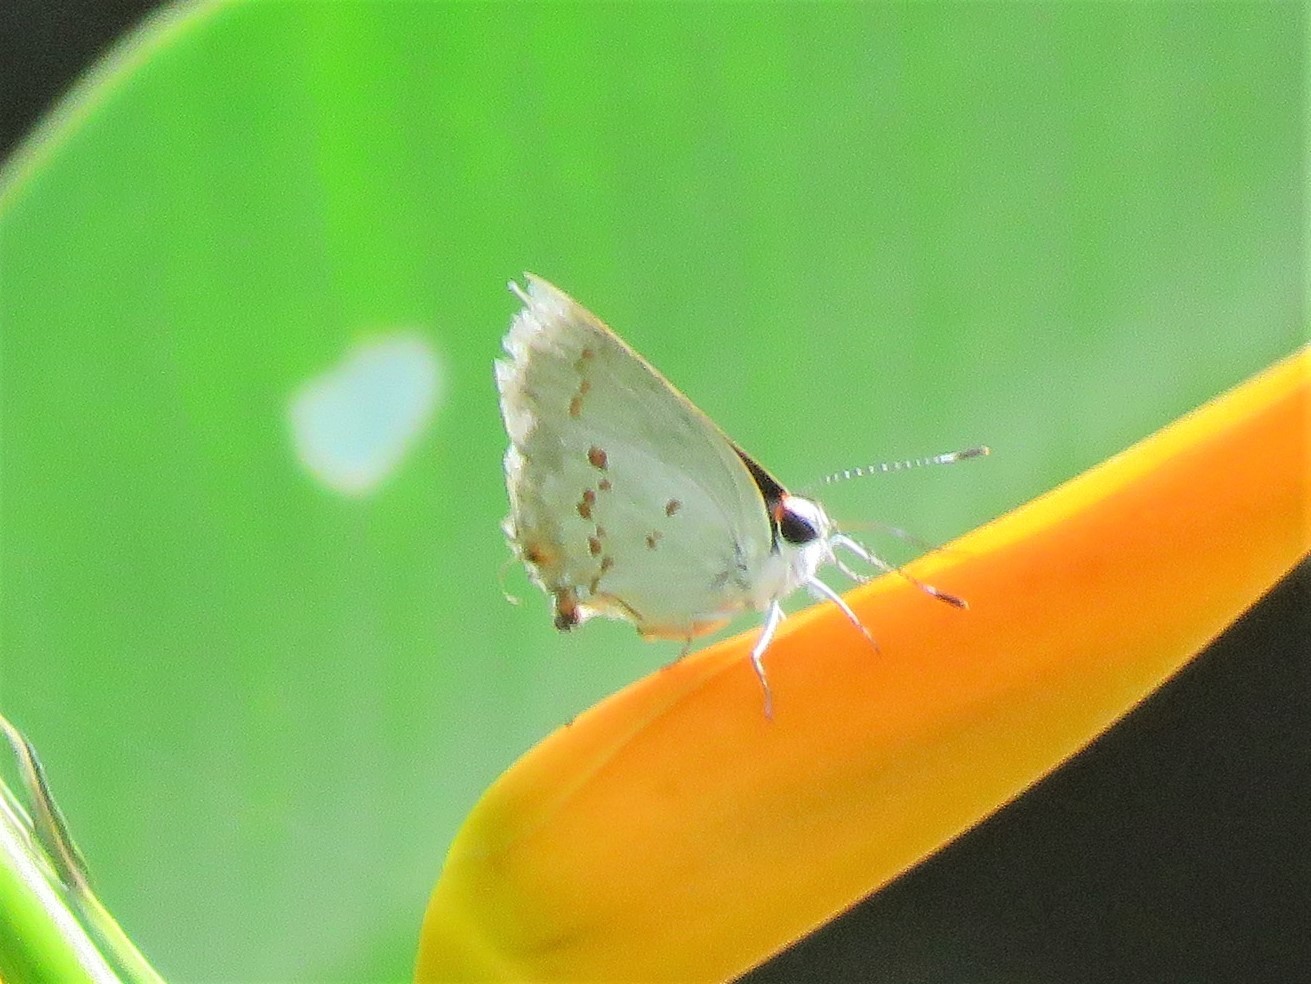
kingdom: Animalia
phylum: Arthropoda
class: Insecta
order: Lepidoptera
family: Lycaenidae
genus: Thecla
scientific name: Thecla ziba
